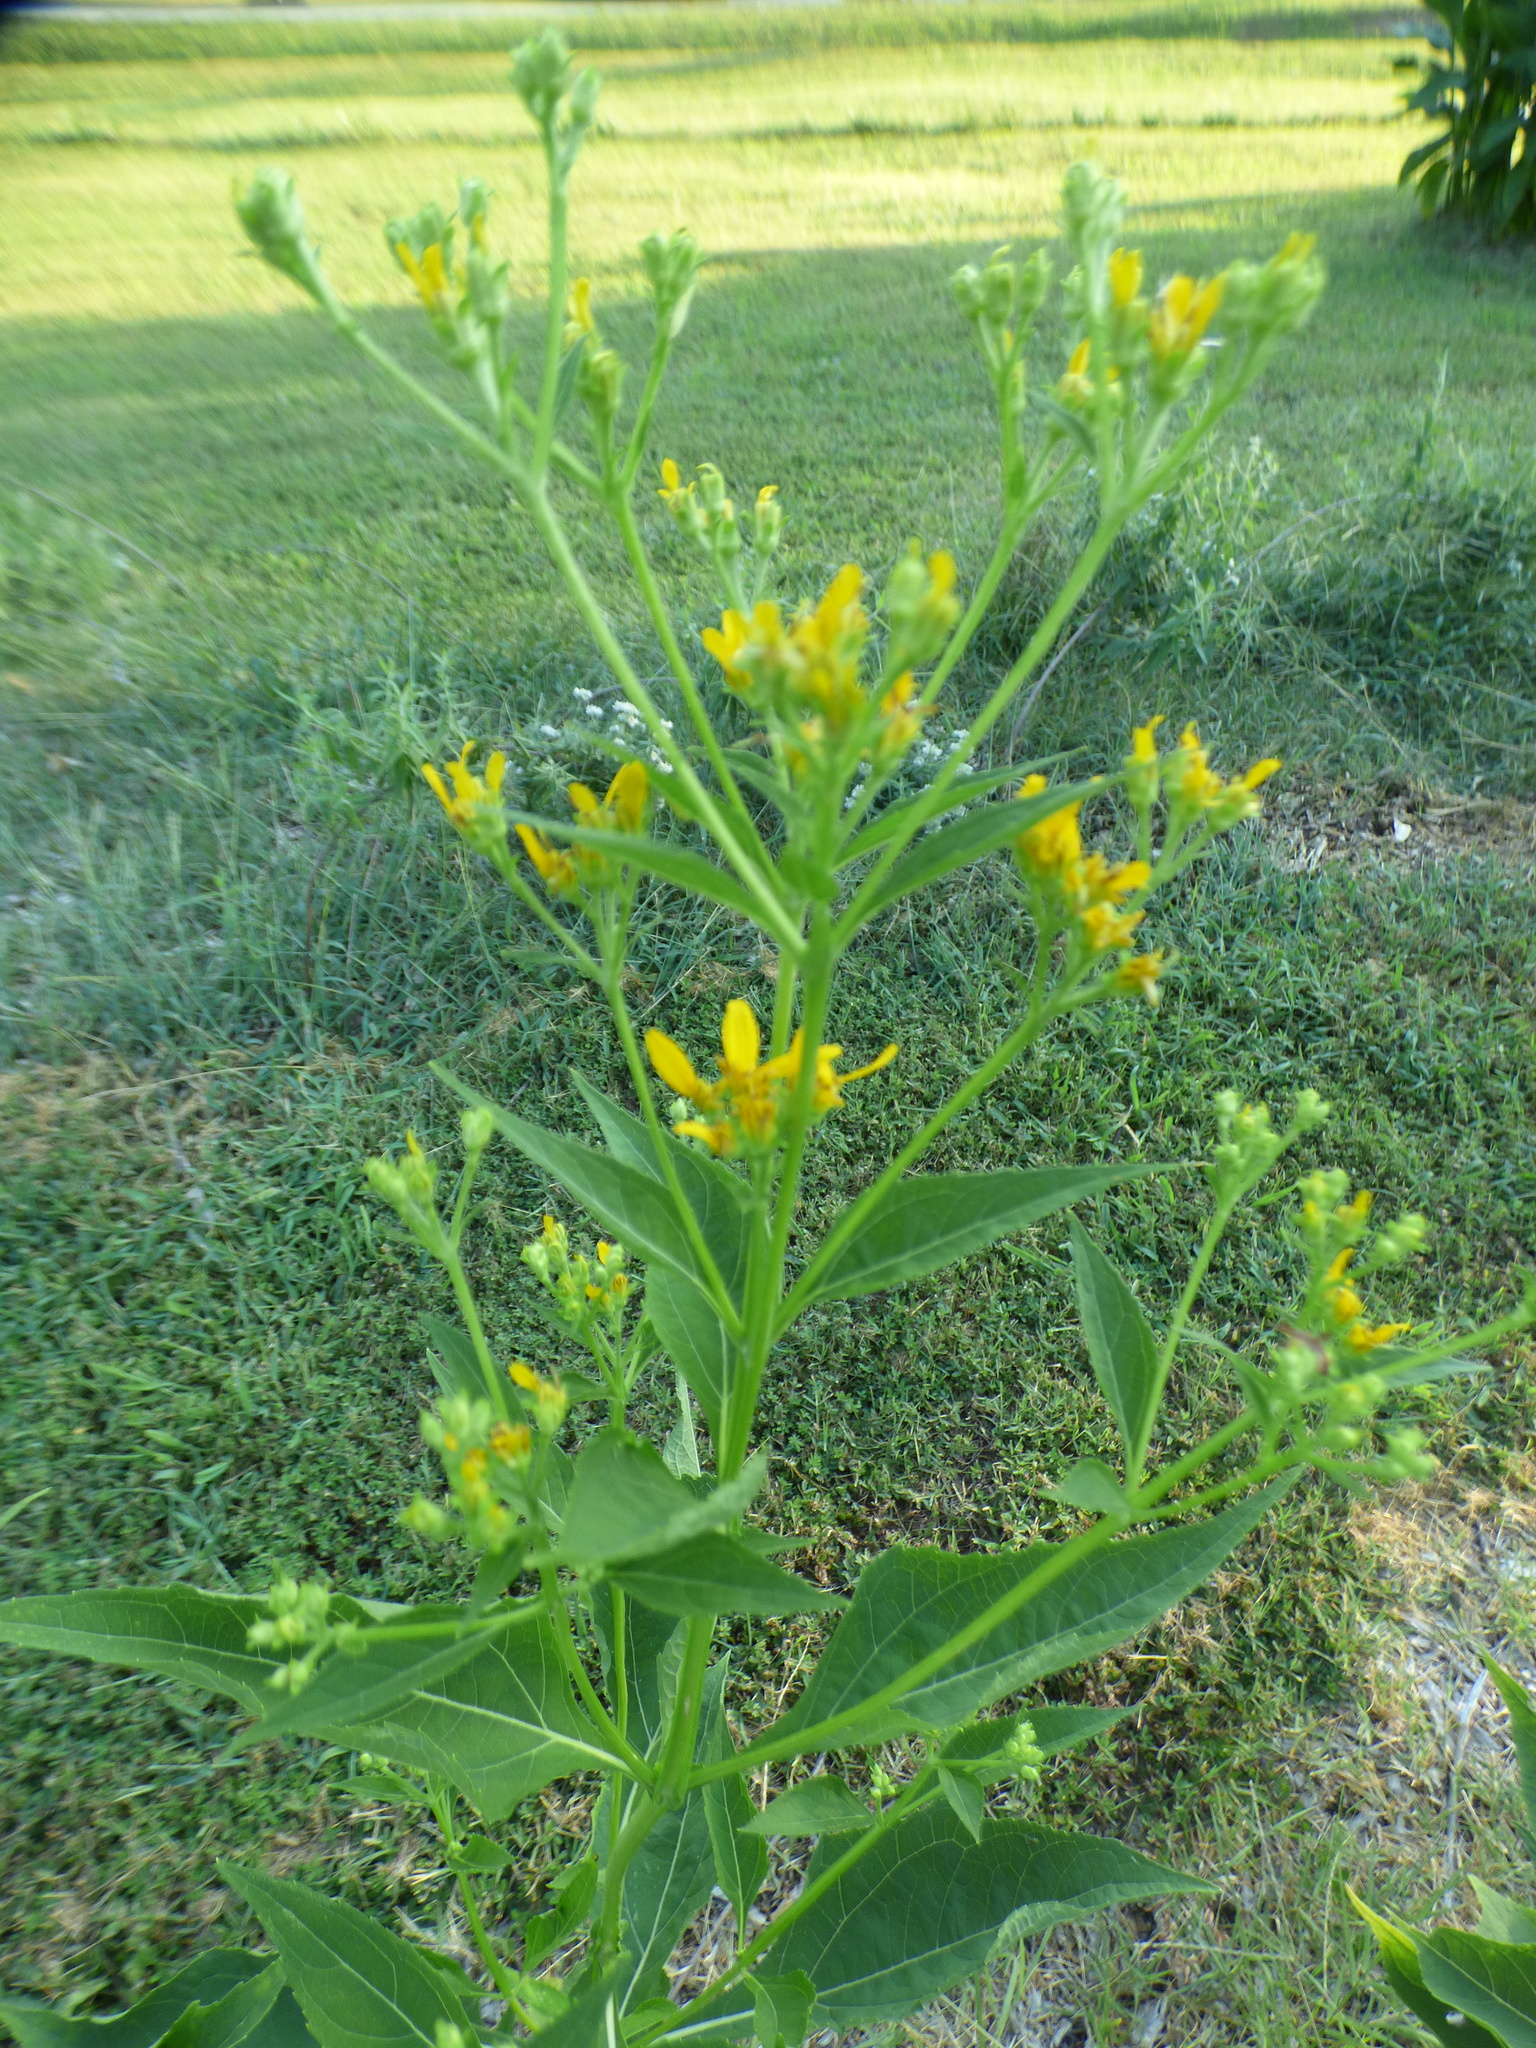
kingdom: Plantae
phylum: Tracheophyta
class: Magnoliopsida
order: Asterales
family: Asteraceae
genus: Verbesina
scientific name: Verbesina occidentalis
